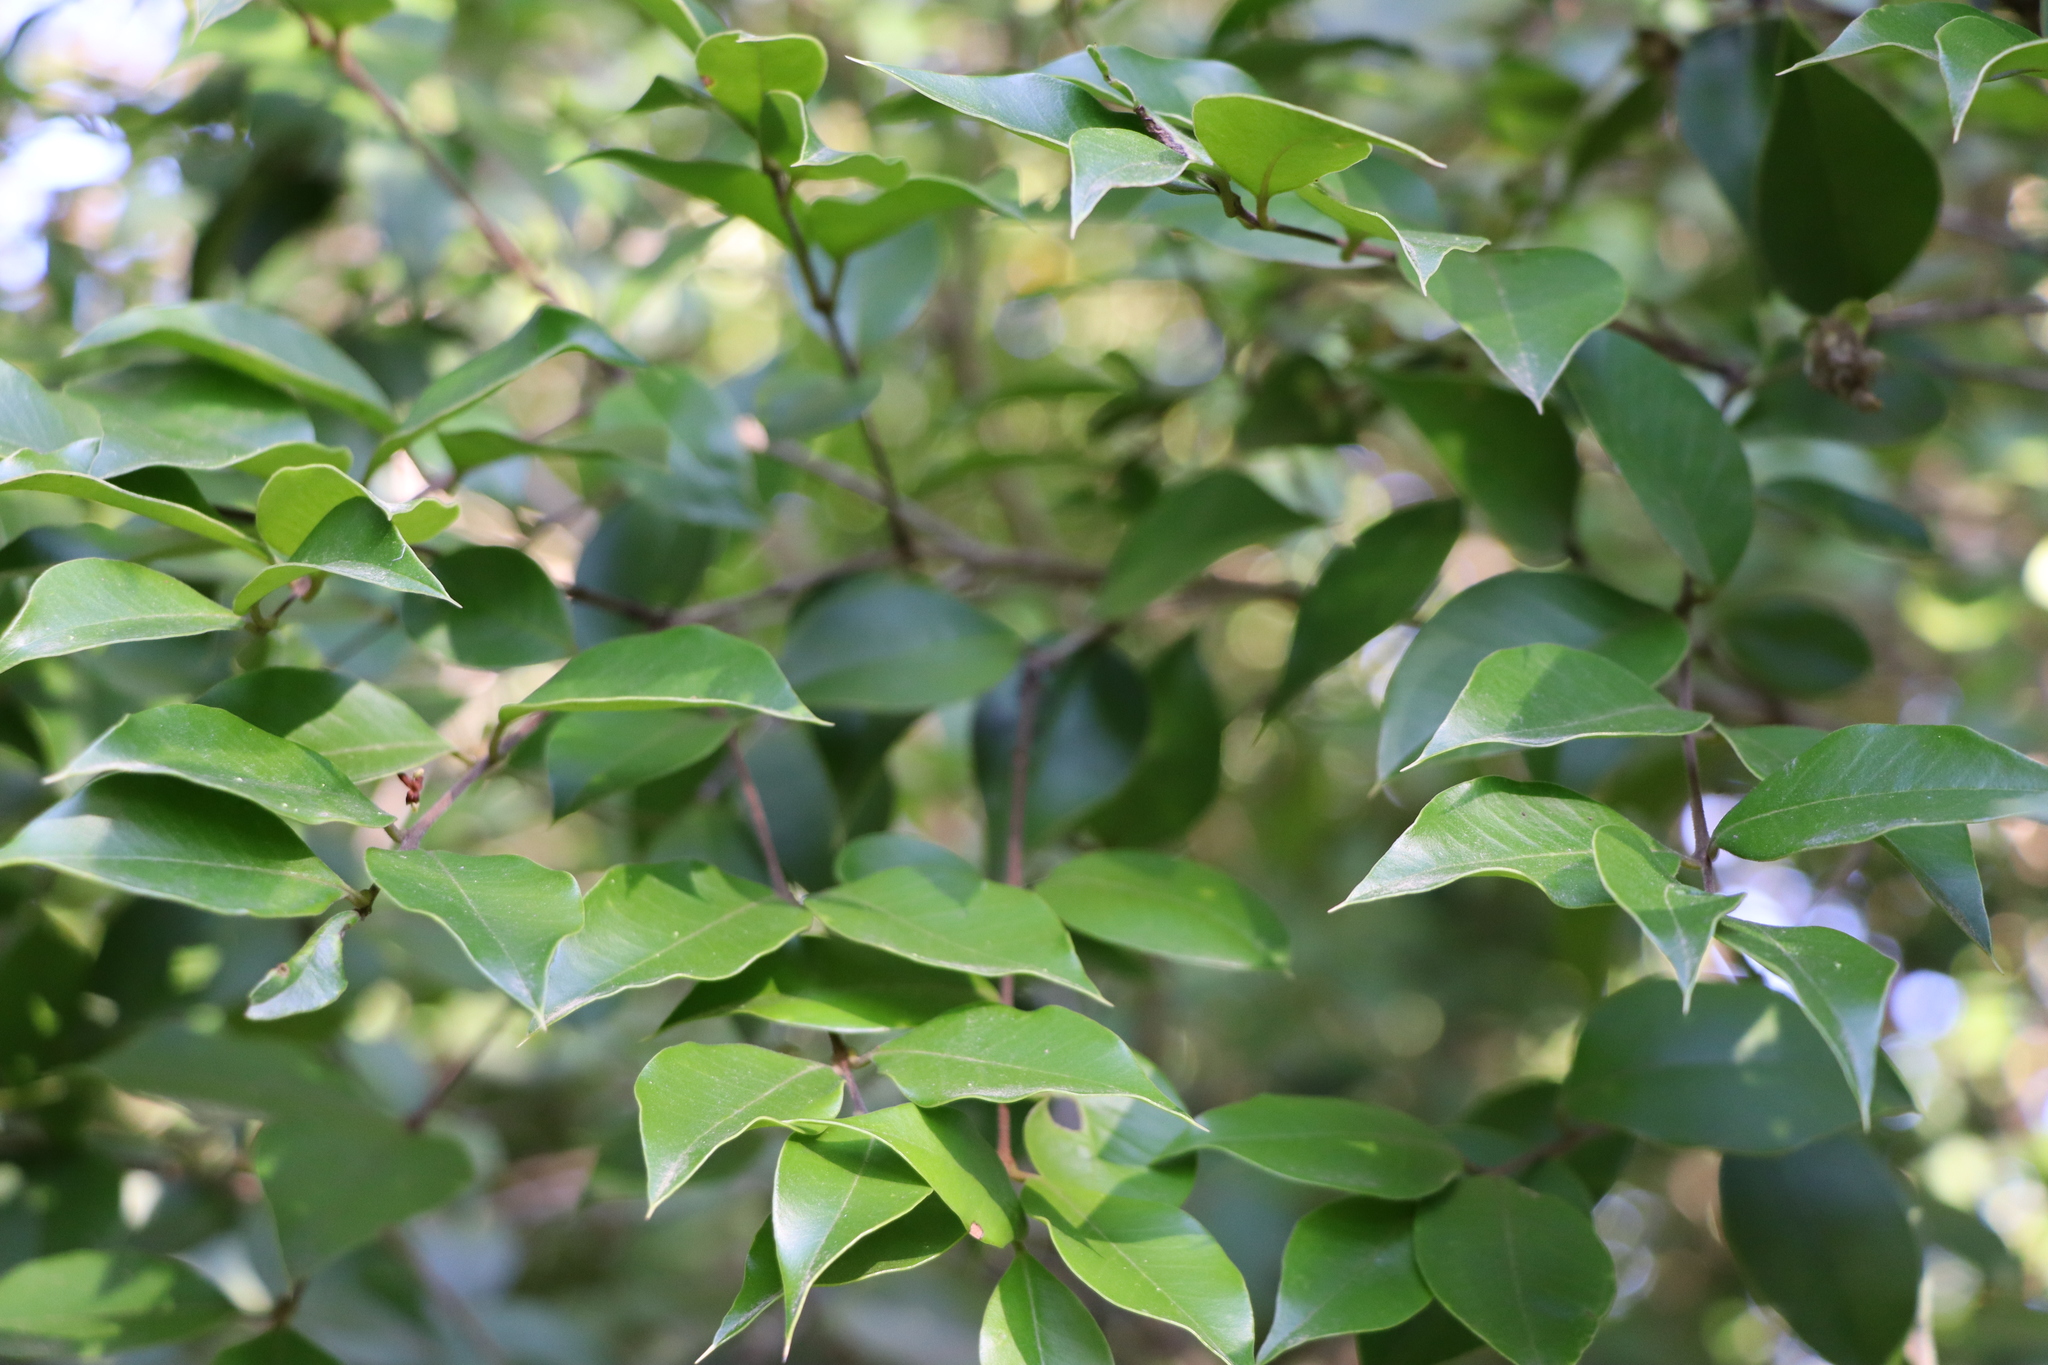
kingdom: Plantae
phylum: Tracheophyta
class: Magnoliopsida
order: Myrtales
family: Myrtaceae
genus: Myrcianthes
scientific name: Myrcianthes pungens
